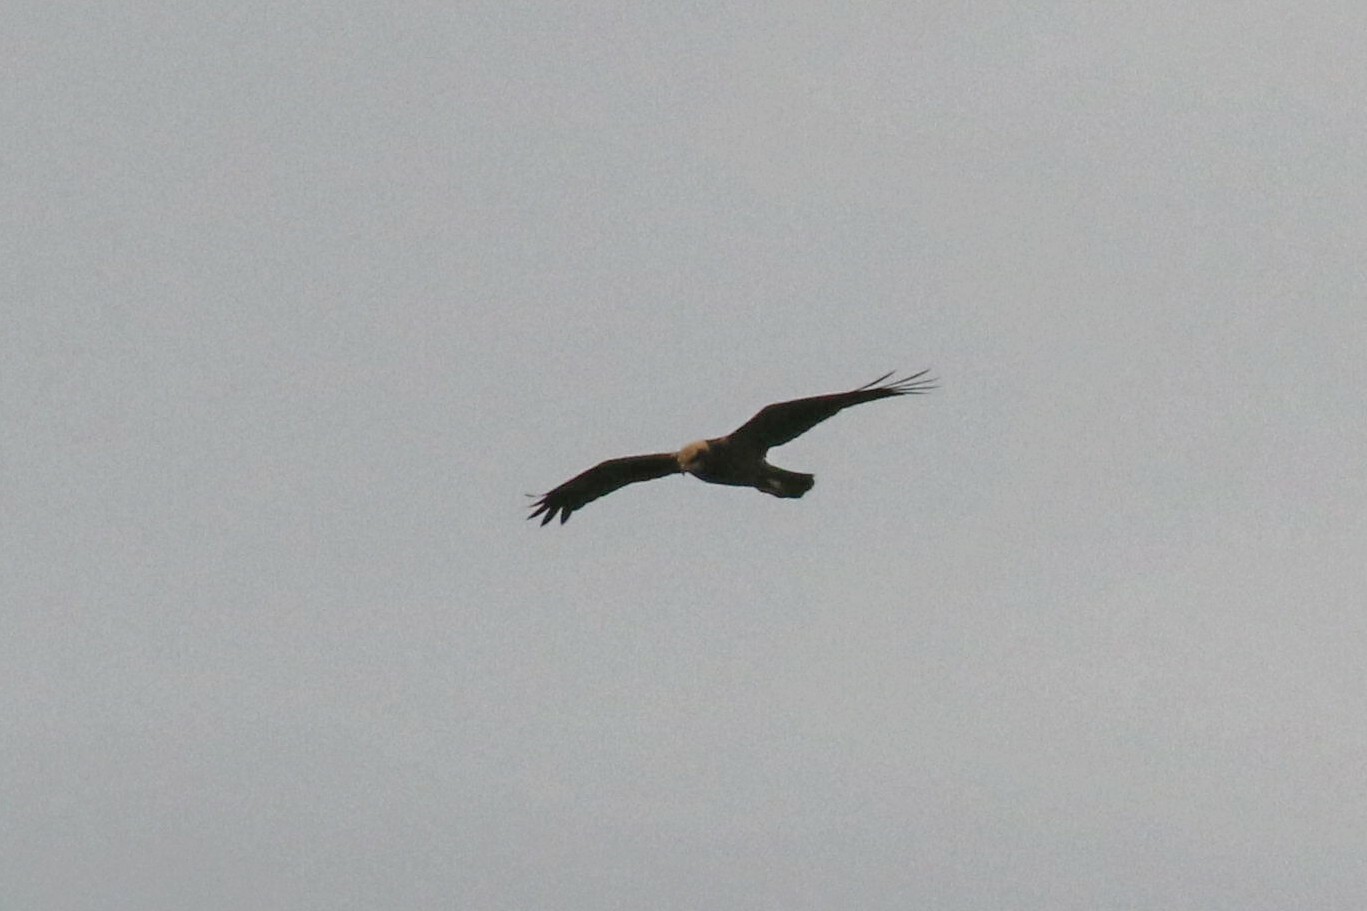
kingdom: Animalia
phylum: Chordata
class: Aves
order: Accipitriformes
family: Accipitridae
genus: Circus
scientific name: Circus aeruginosus
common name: Western marsh harrier
